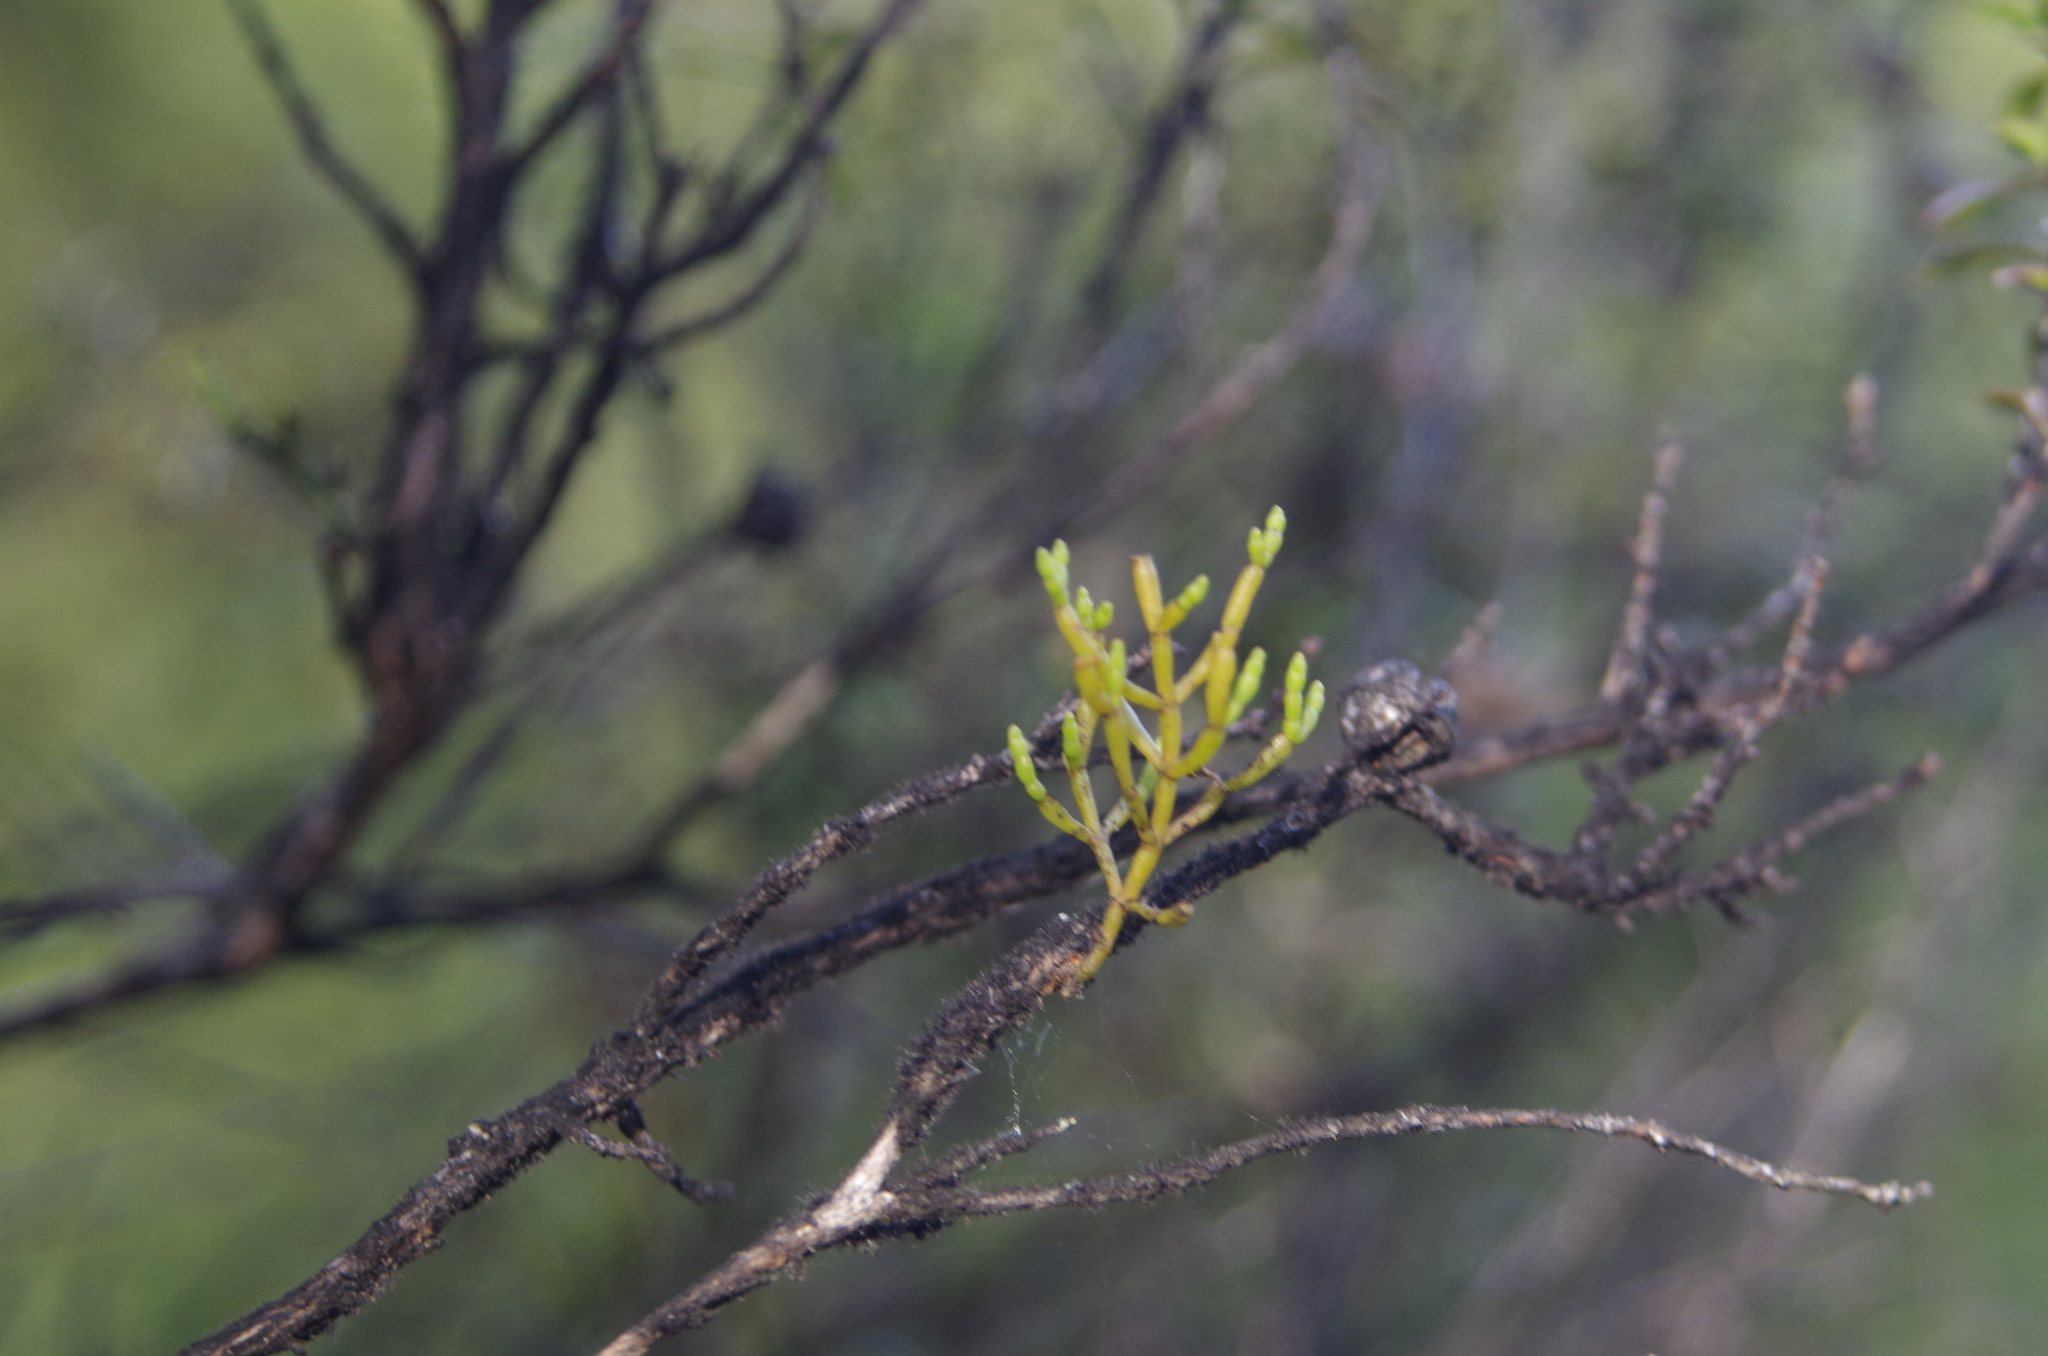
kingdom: Plantae
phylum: Tracheophyta
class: Magnoliopsida
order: Santalales
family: Viscaceae
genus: Korthalsella
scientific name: Korthalsella salicornioides
